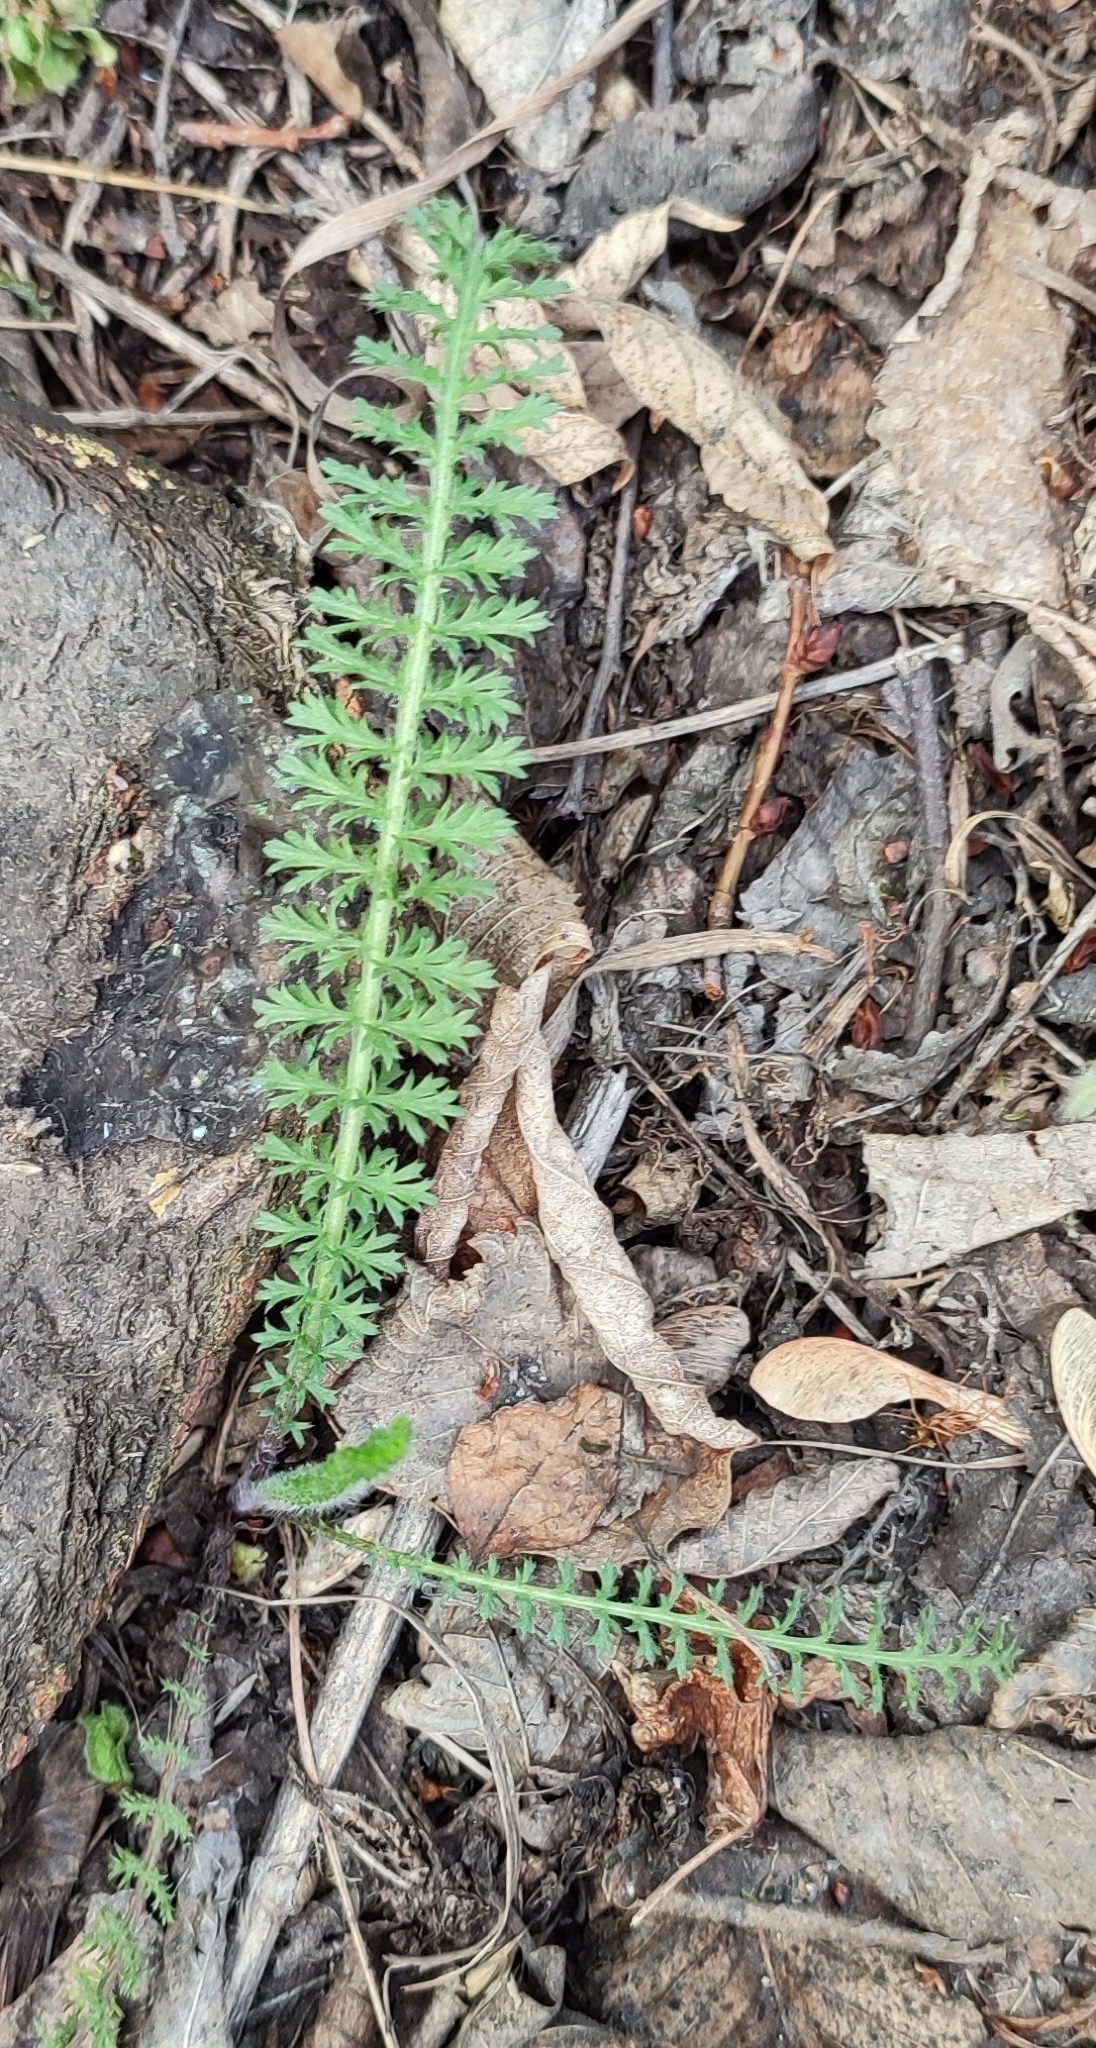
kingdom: Plantae
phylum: Tracheophyta
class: Magnoliopsida
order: Asterales
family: Asteraceae
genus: Achillea
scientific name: Achillea millefolium
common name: Yarrow
